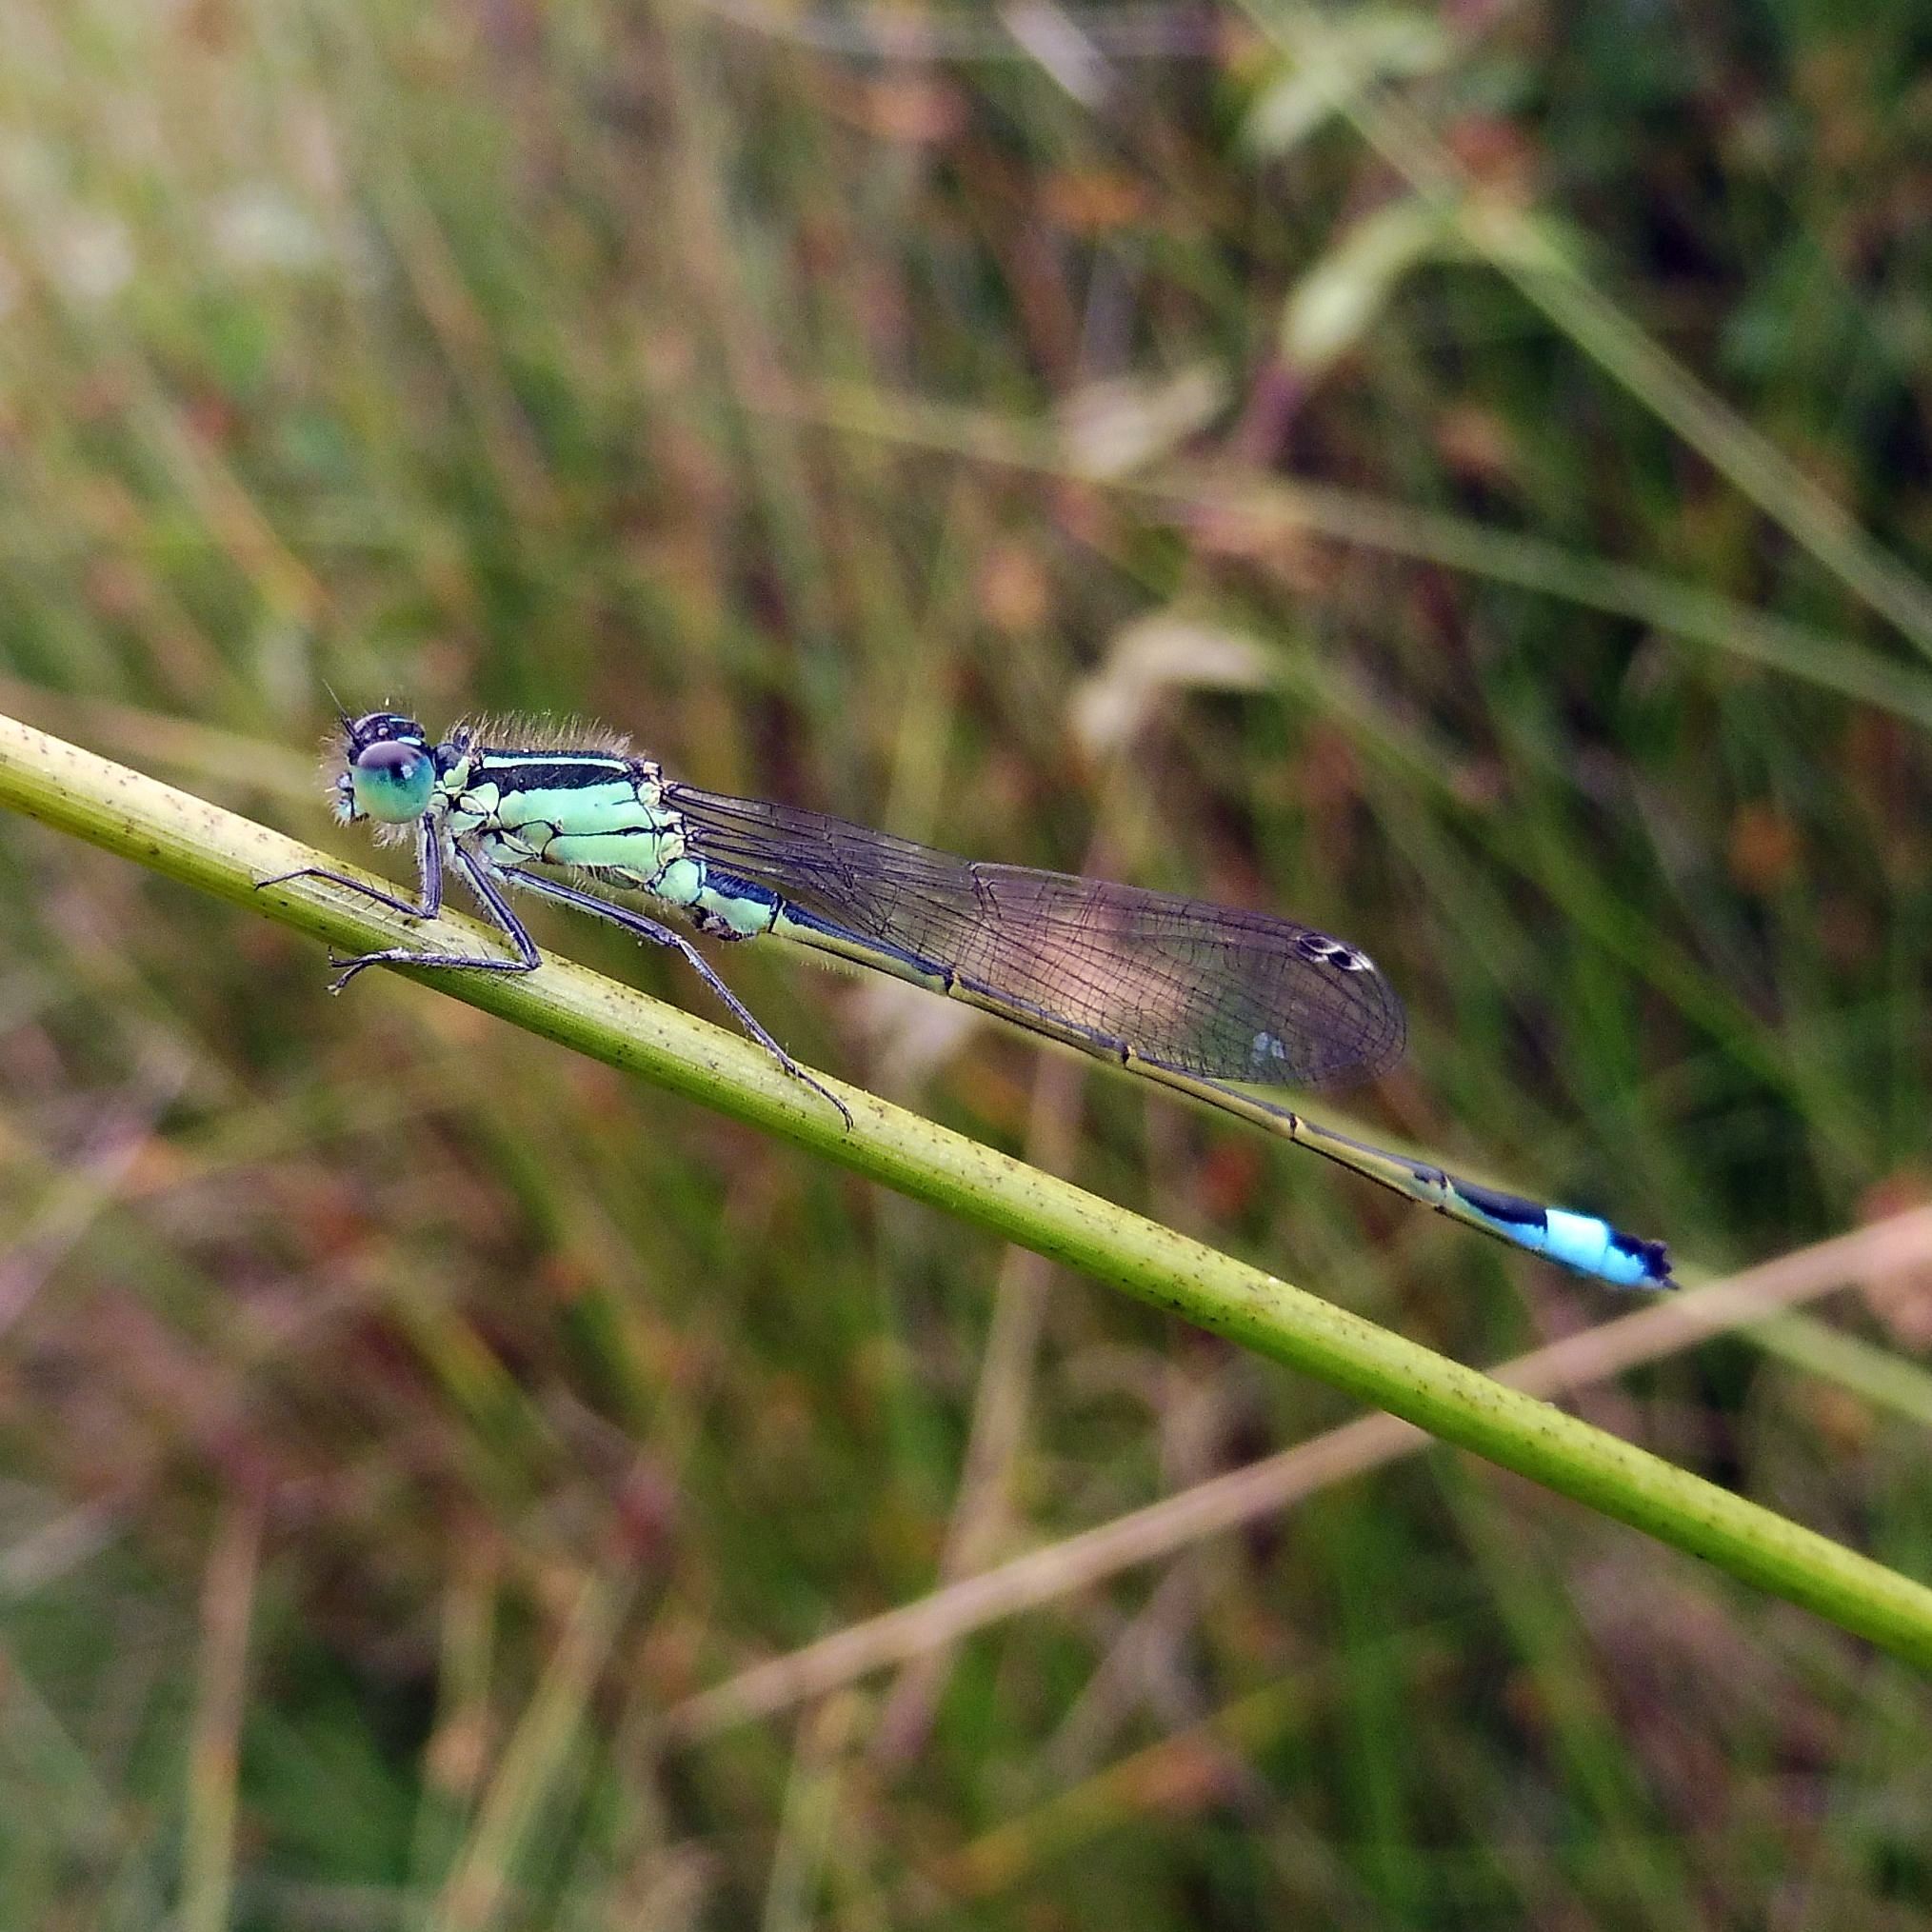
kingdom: Animalia
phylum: Arthropoda
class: Insecta
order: Odonata
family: Coenagrionidae
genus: Ischnura
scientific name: Ischnura elegans
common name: Blue-tailed damselfly
